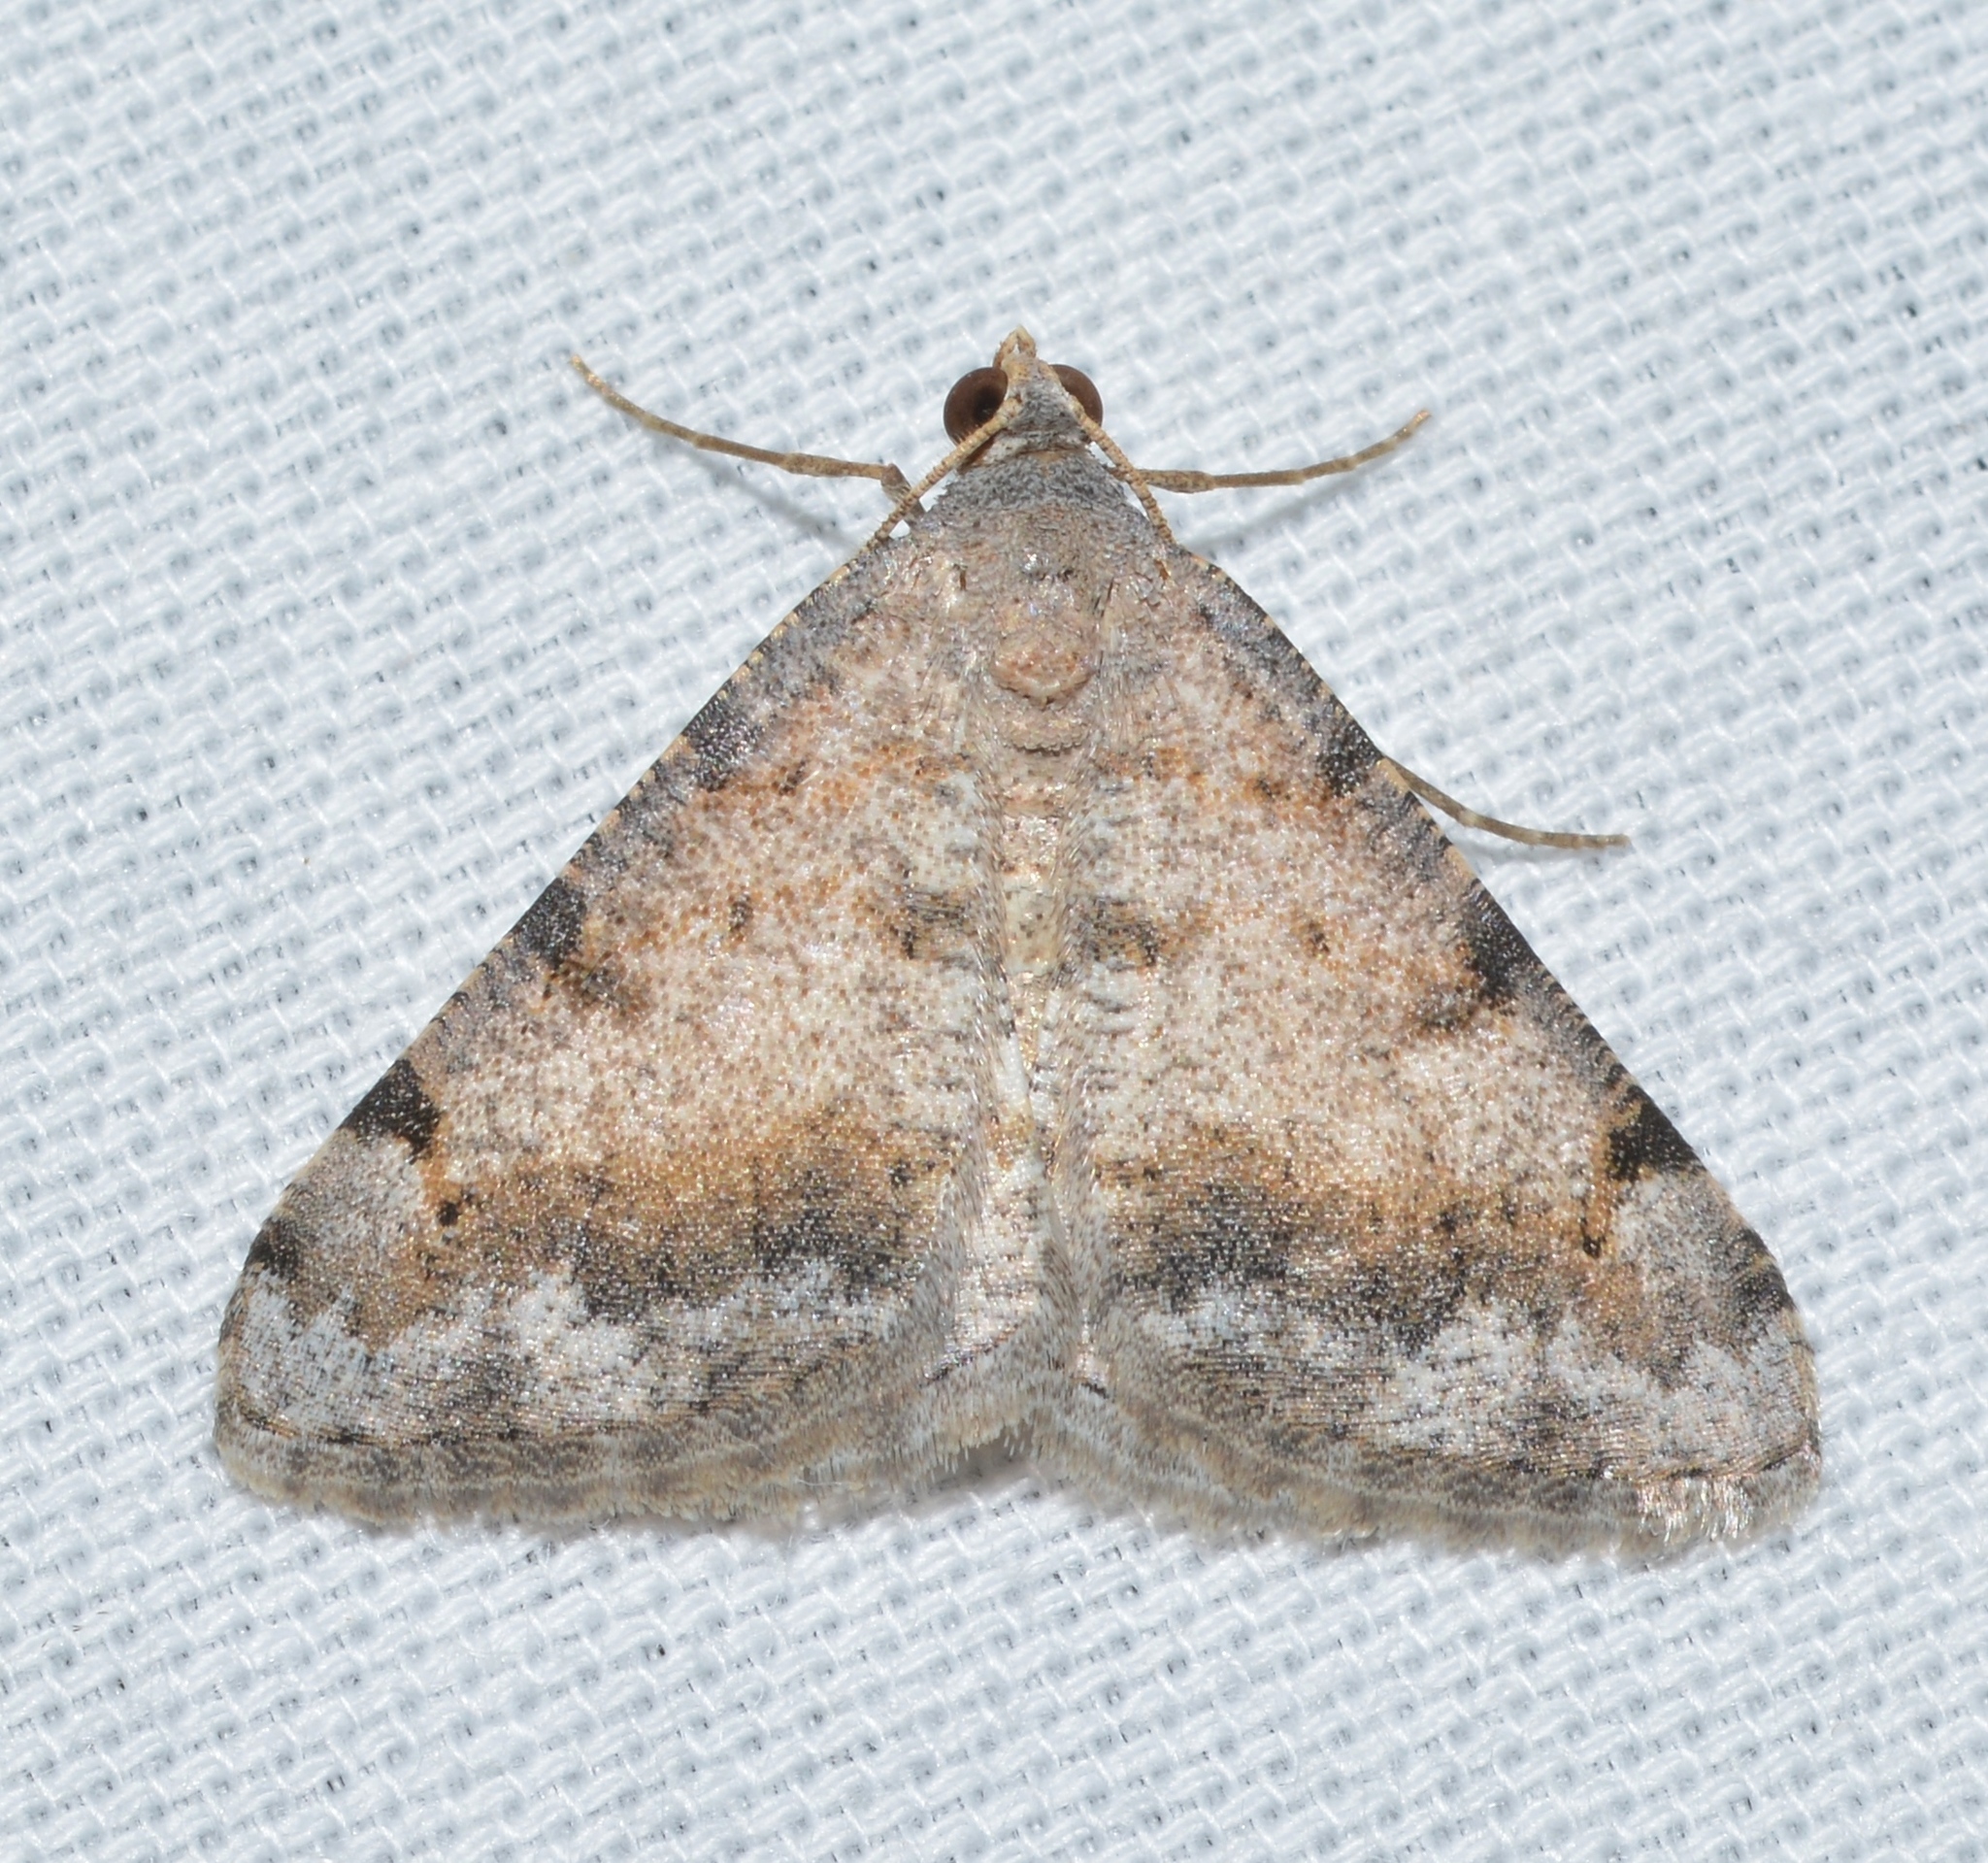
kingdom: Animalia
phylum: Arthropoda
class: Insecta
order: Lepidoptera
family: Geometridae
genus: Digrammia
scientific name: Digrammia colorata
